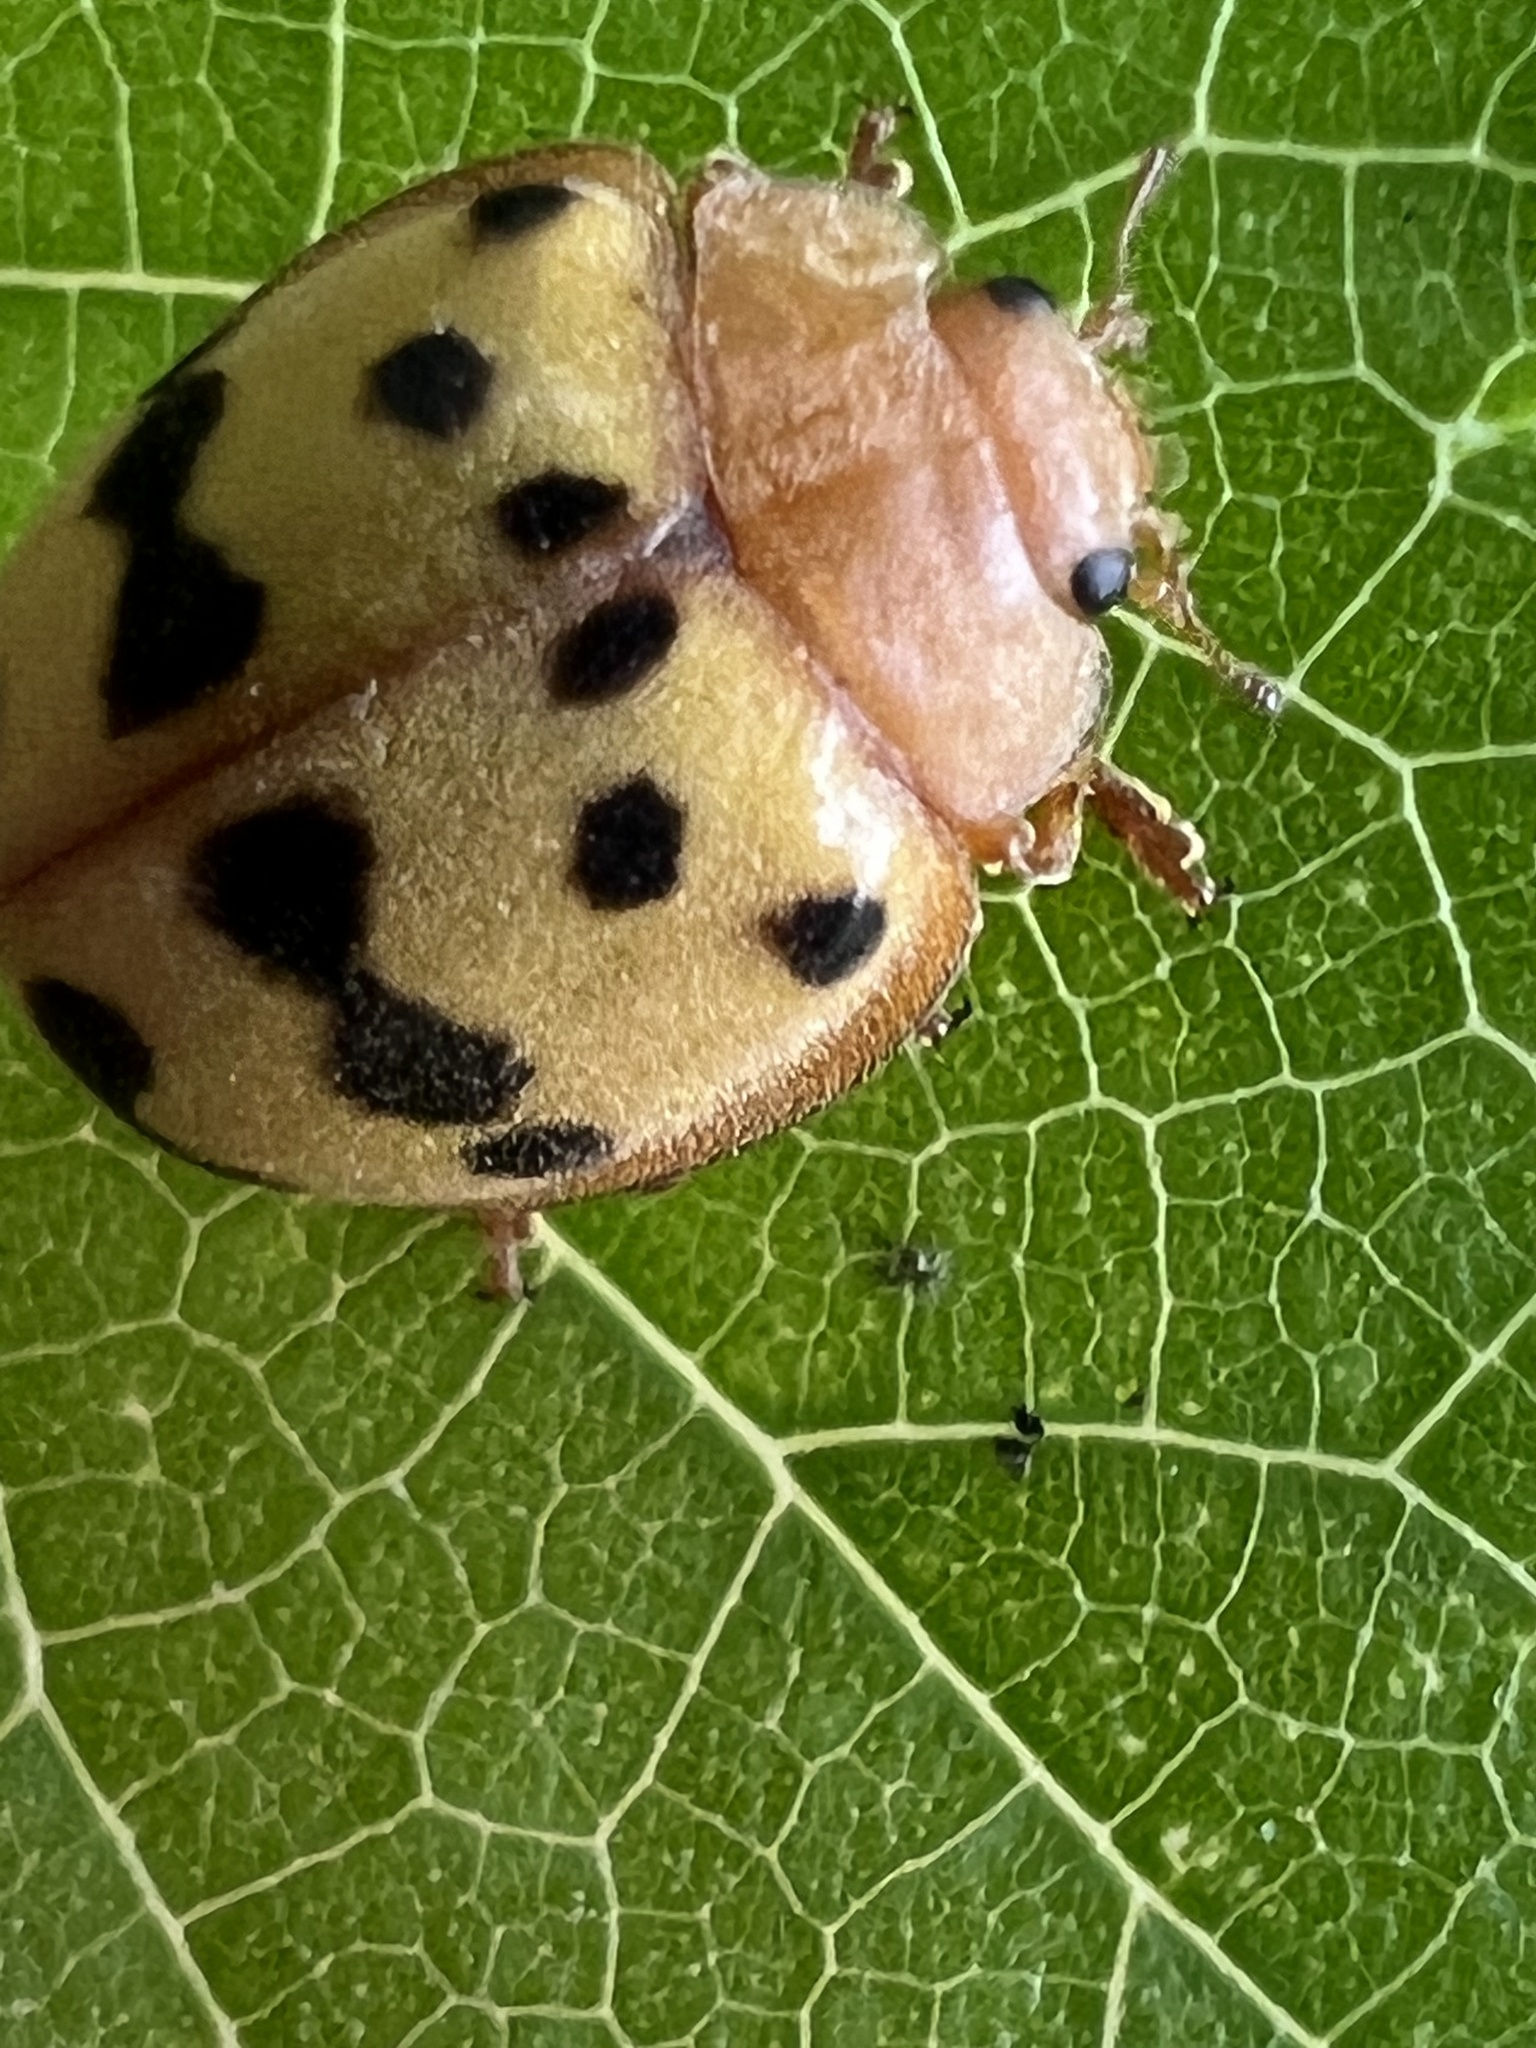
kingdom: Animalia
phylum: Arthropoda
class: Insecta
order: Coleoptera
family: Coccinellidae
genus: Epilachna
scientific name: Epilachna varivestis
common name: Ladybird beetle
